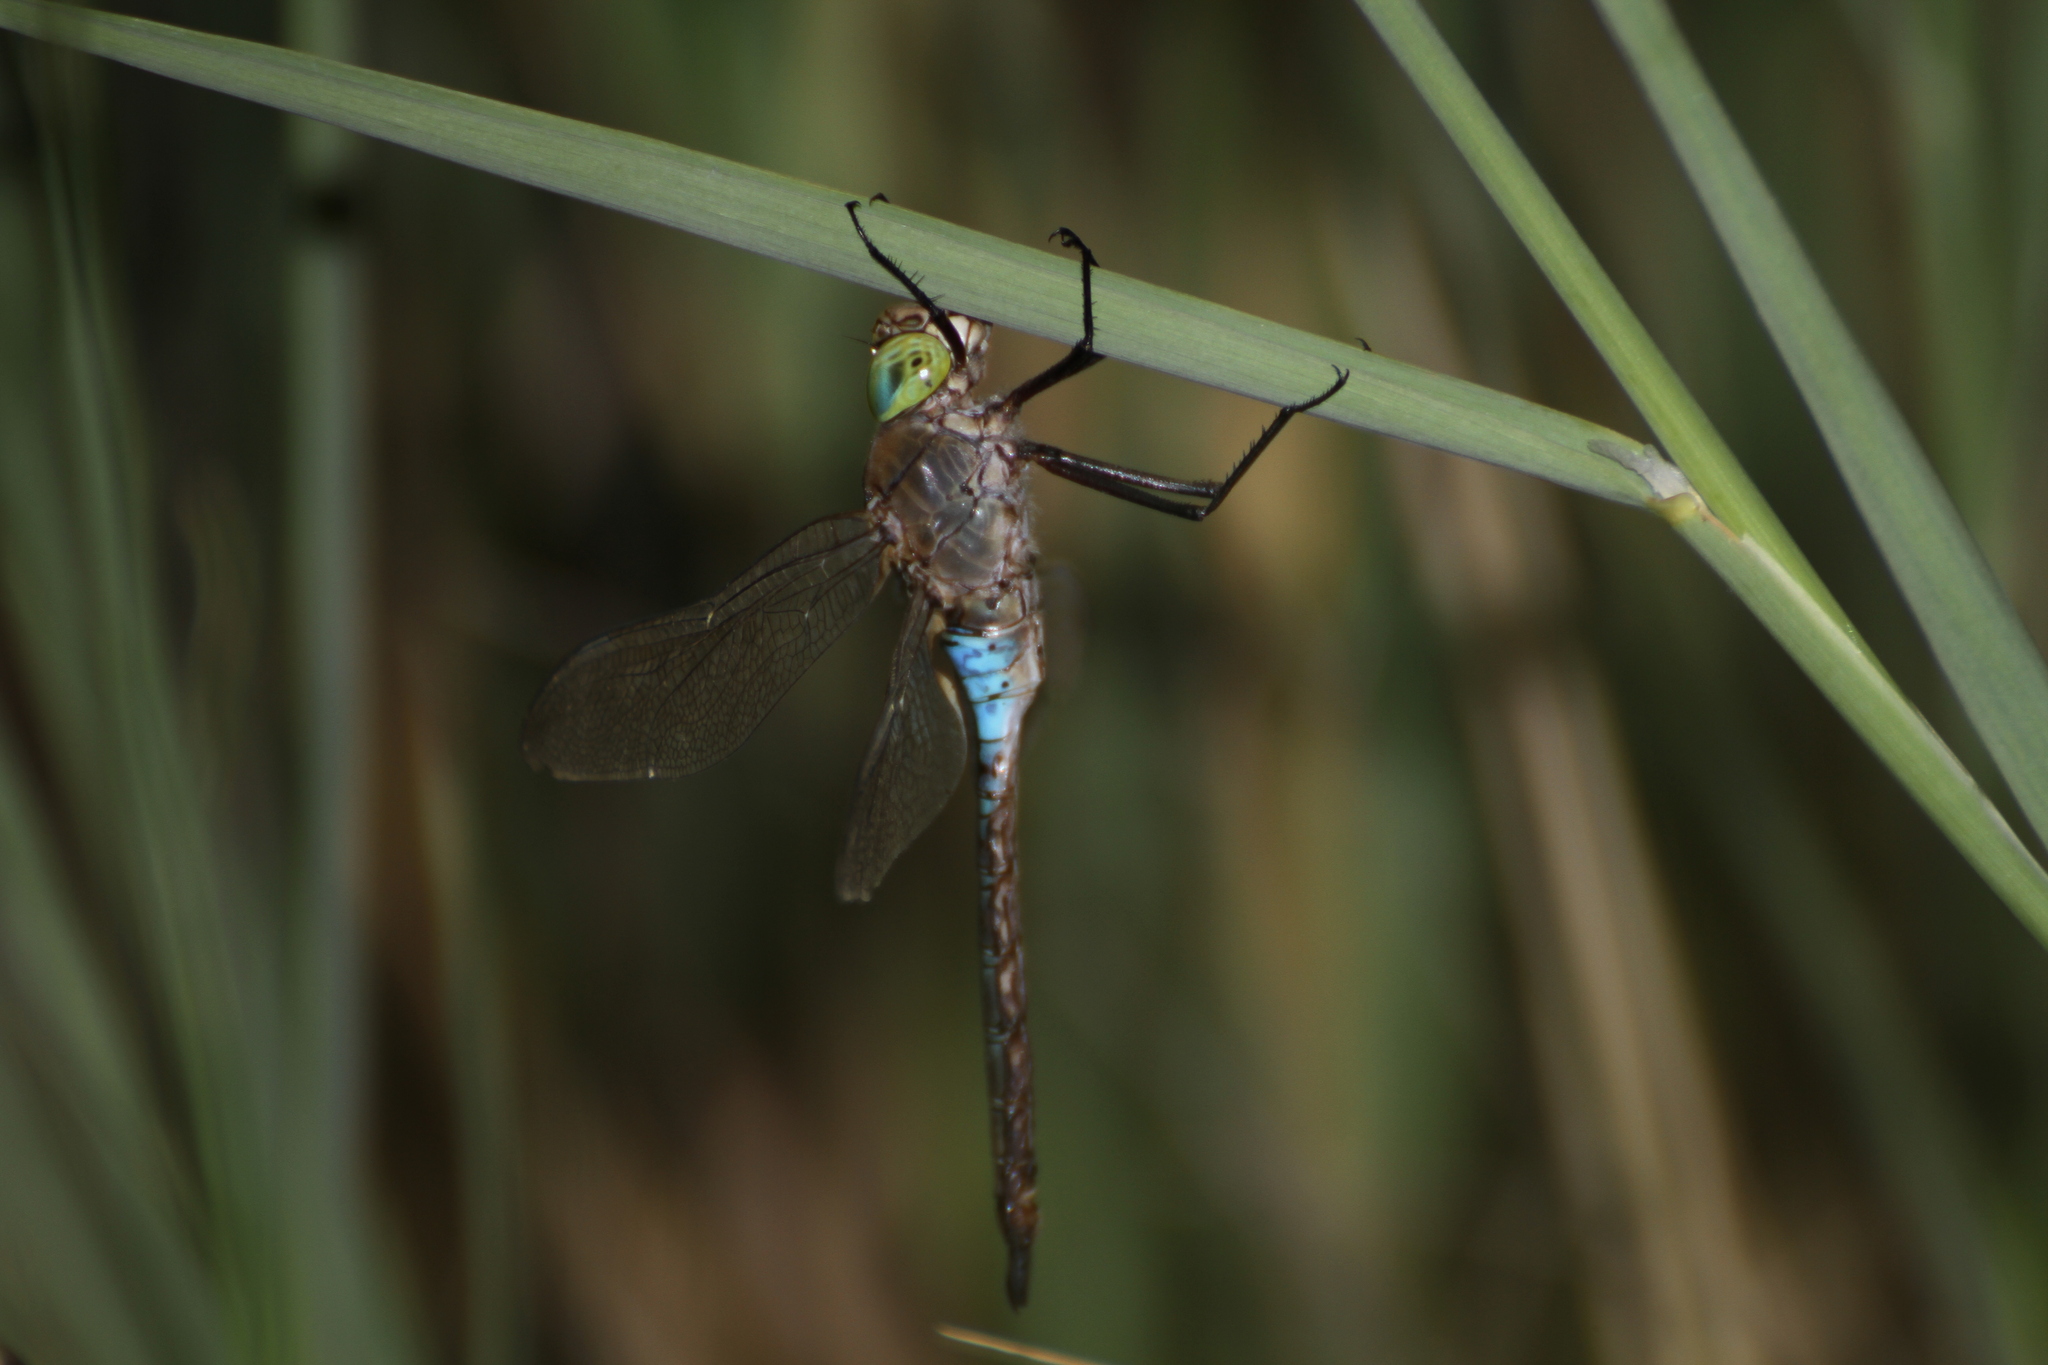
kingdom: Animalia
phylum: Arthropoda
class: Insecta
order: Odonata
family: Aeshnidae
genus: Anax
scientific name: Anax parthenope
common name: Lesser emperor
